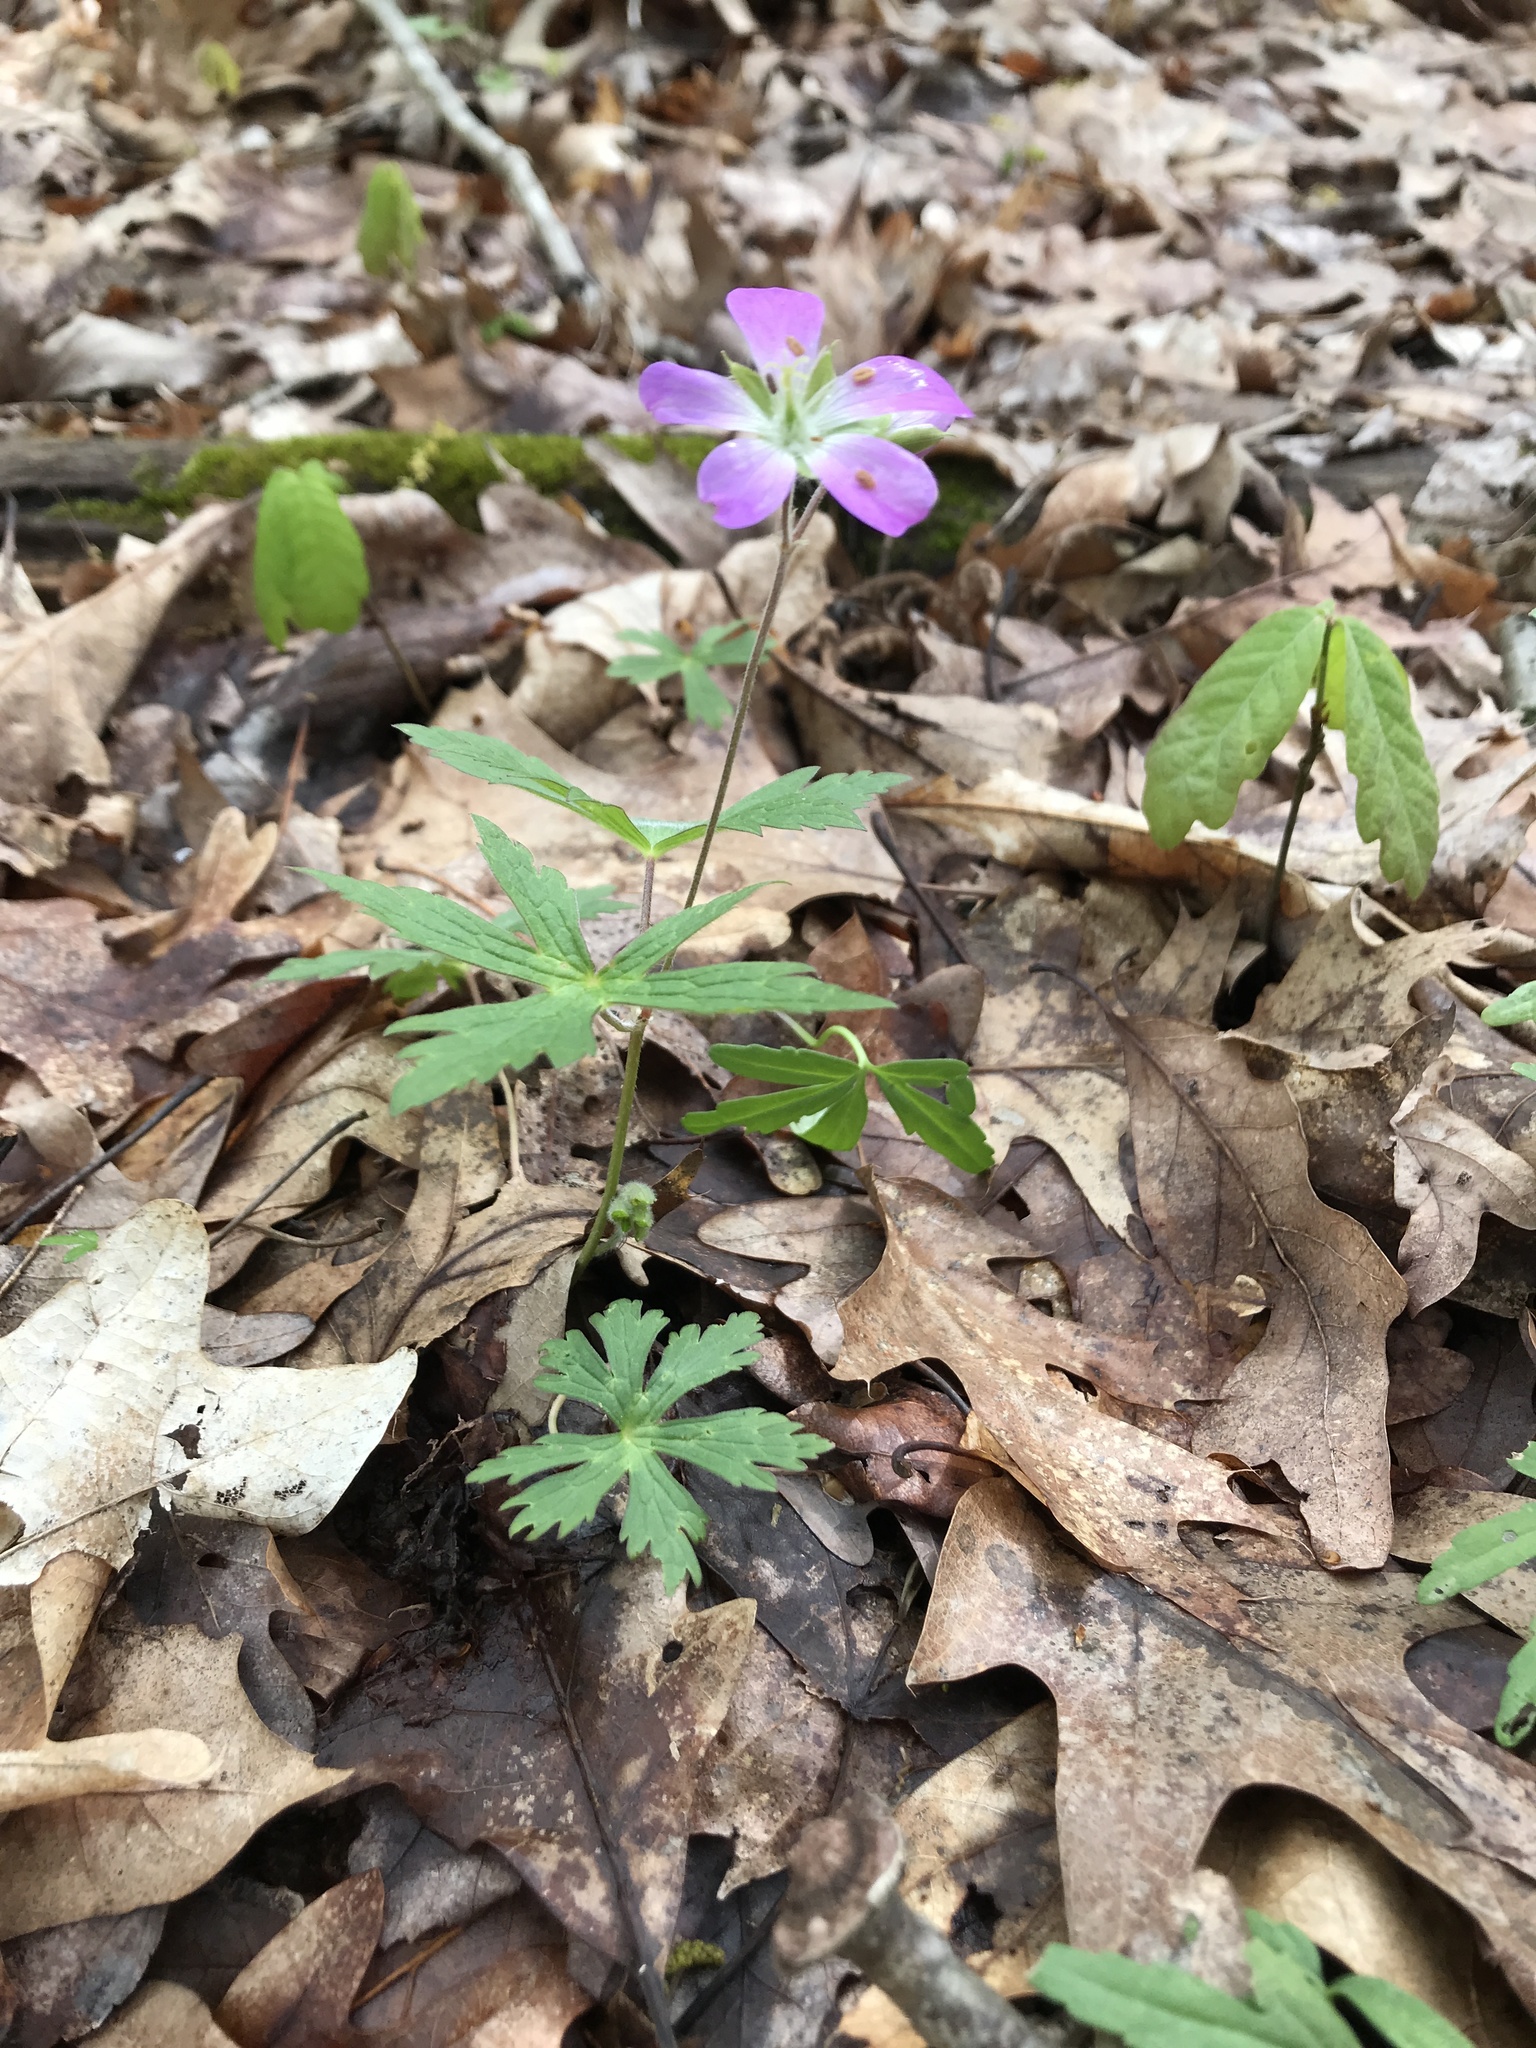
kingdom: Plantae
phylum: Tracheophyta
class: Magnoliopsida
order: Geraniales
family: Geraniaceae
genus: Geranium
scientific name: Geranium maculatum
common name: Spotted geranium
